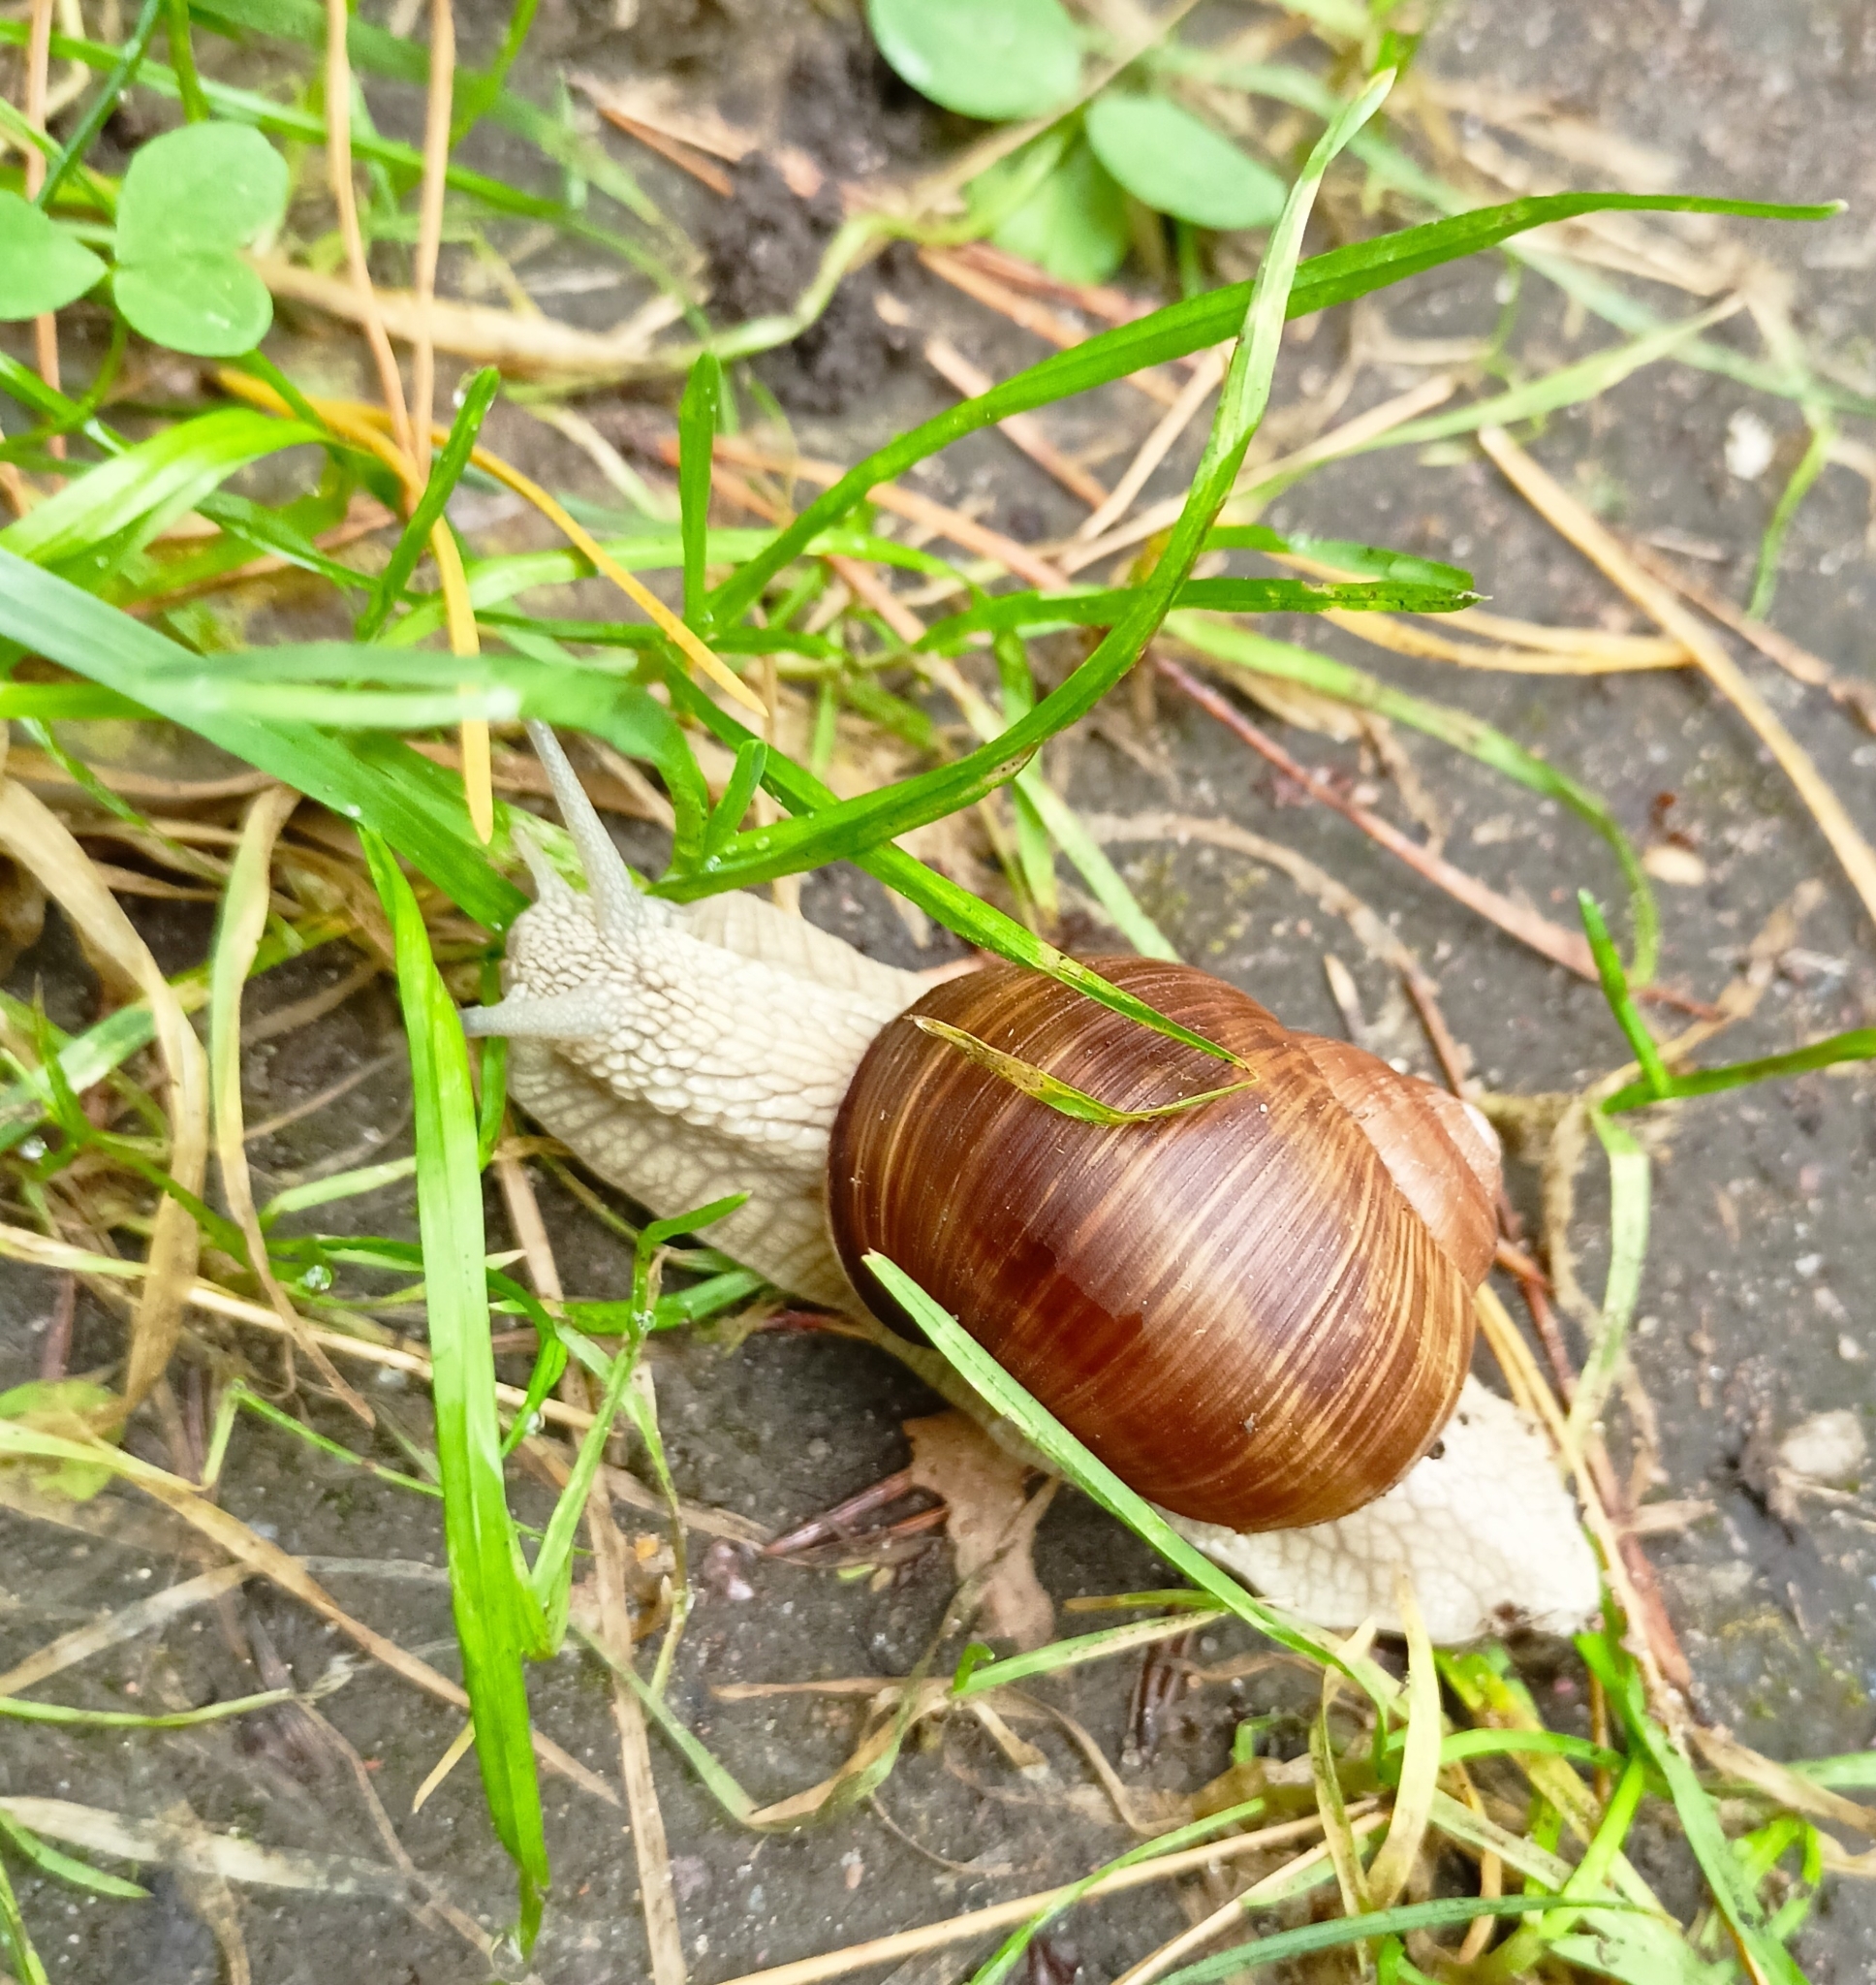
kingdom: Animalia
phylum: Mollusca
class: Gastropoda
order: Stylommatophora
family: Helicidae
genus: Helix
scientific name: Helix pomatia
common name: Roman snail
